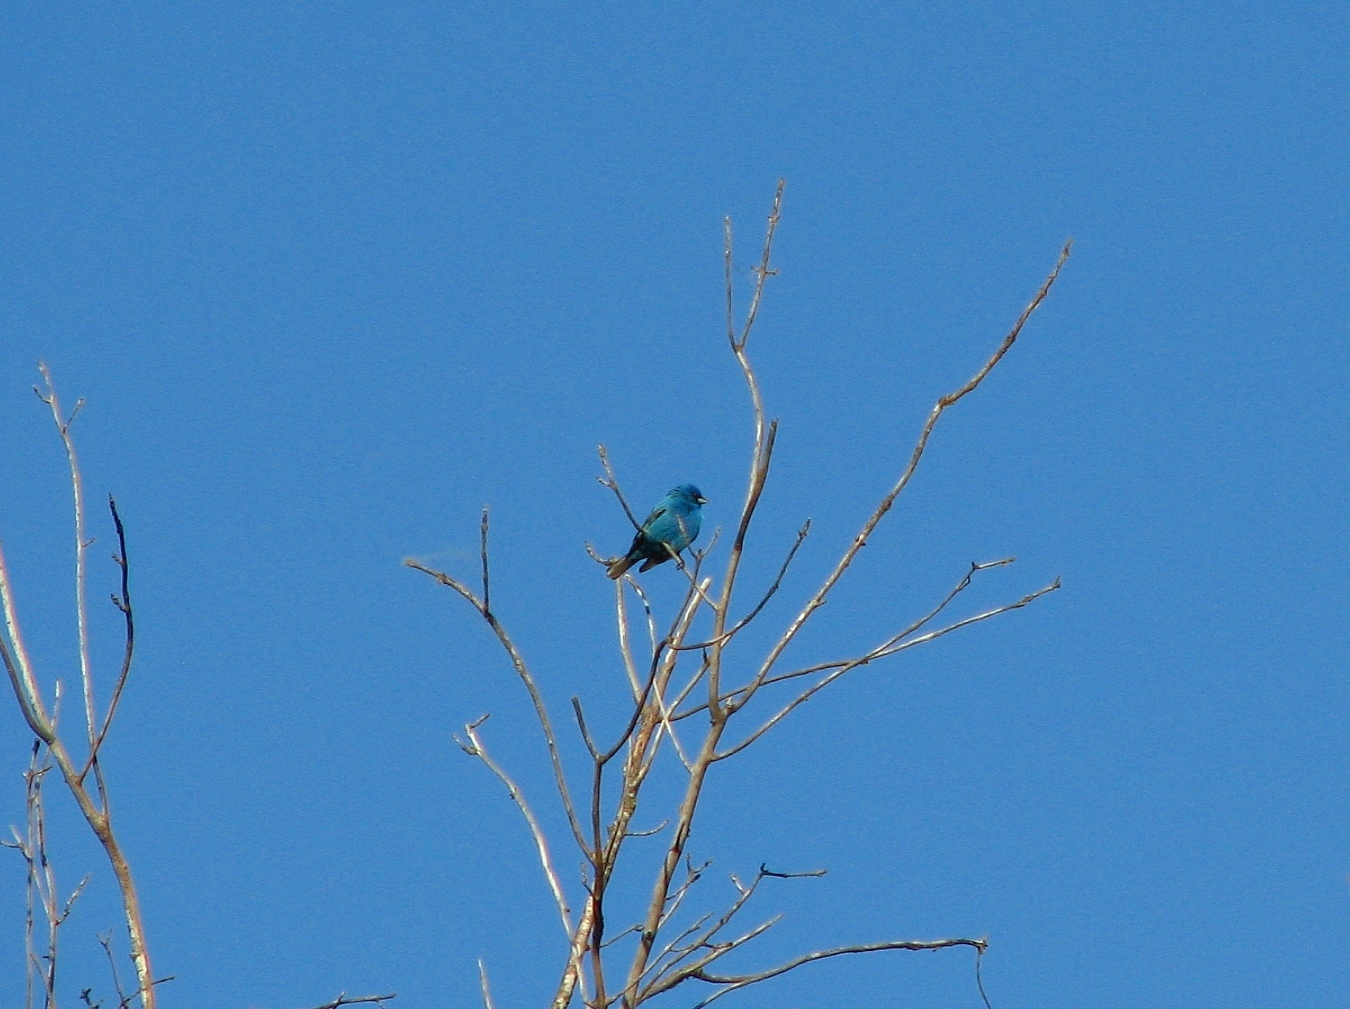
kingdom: Animalia
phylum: Chordata
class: Aves
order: Passeriformes
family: Cardinalidae
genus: Passerina
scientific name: Passerina cyanea
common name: Indigo bunting
